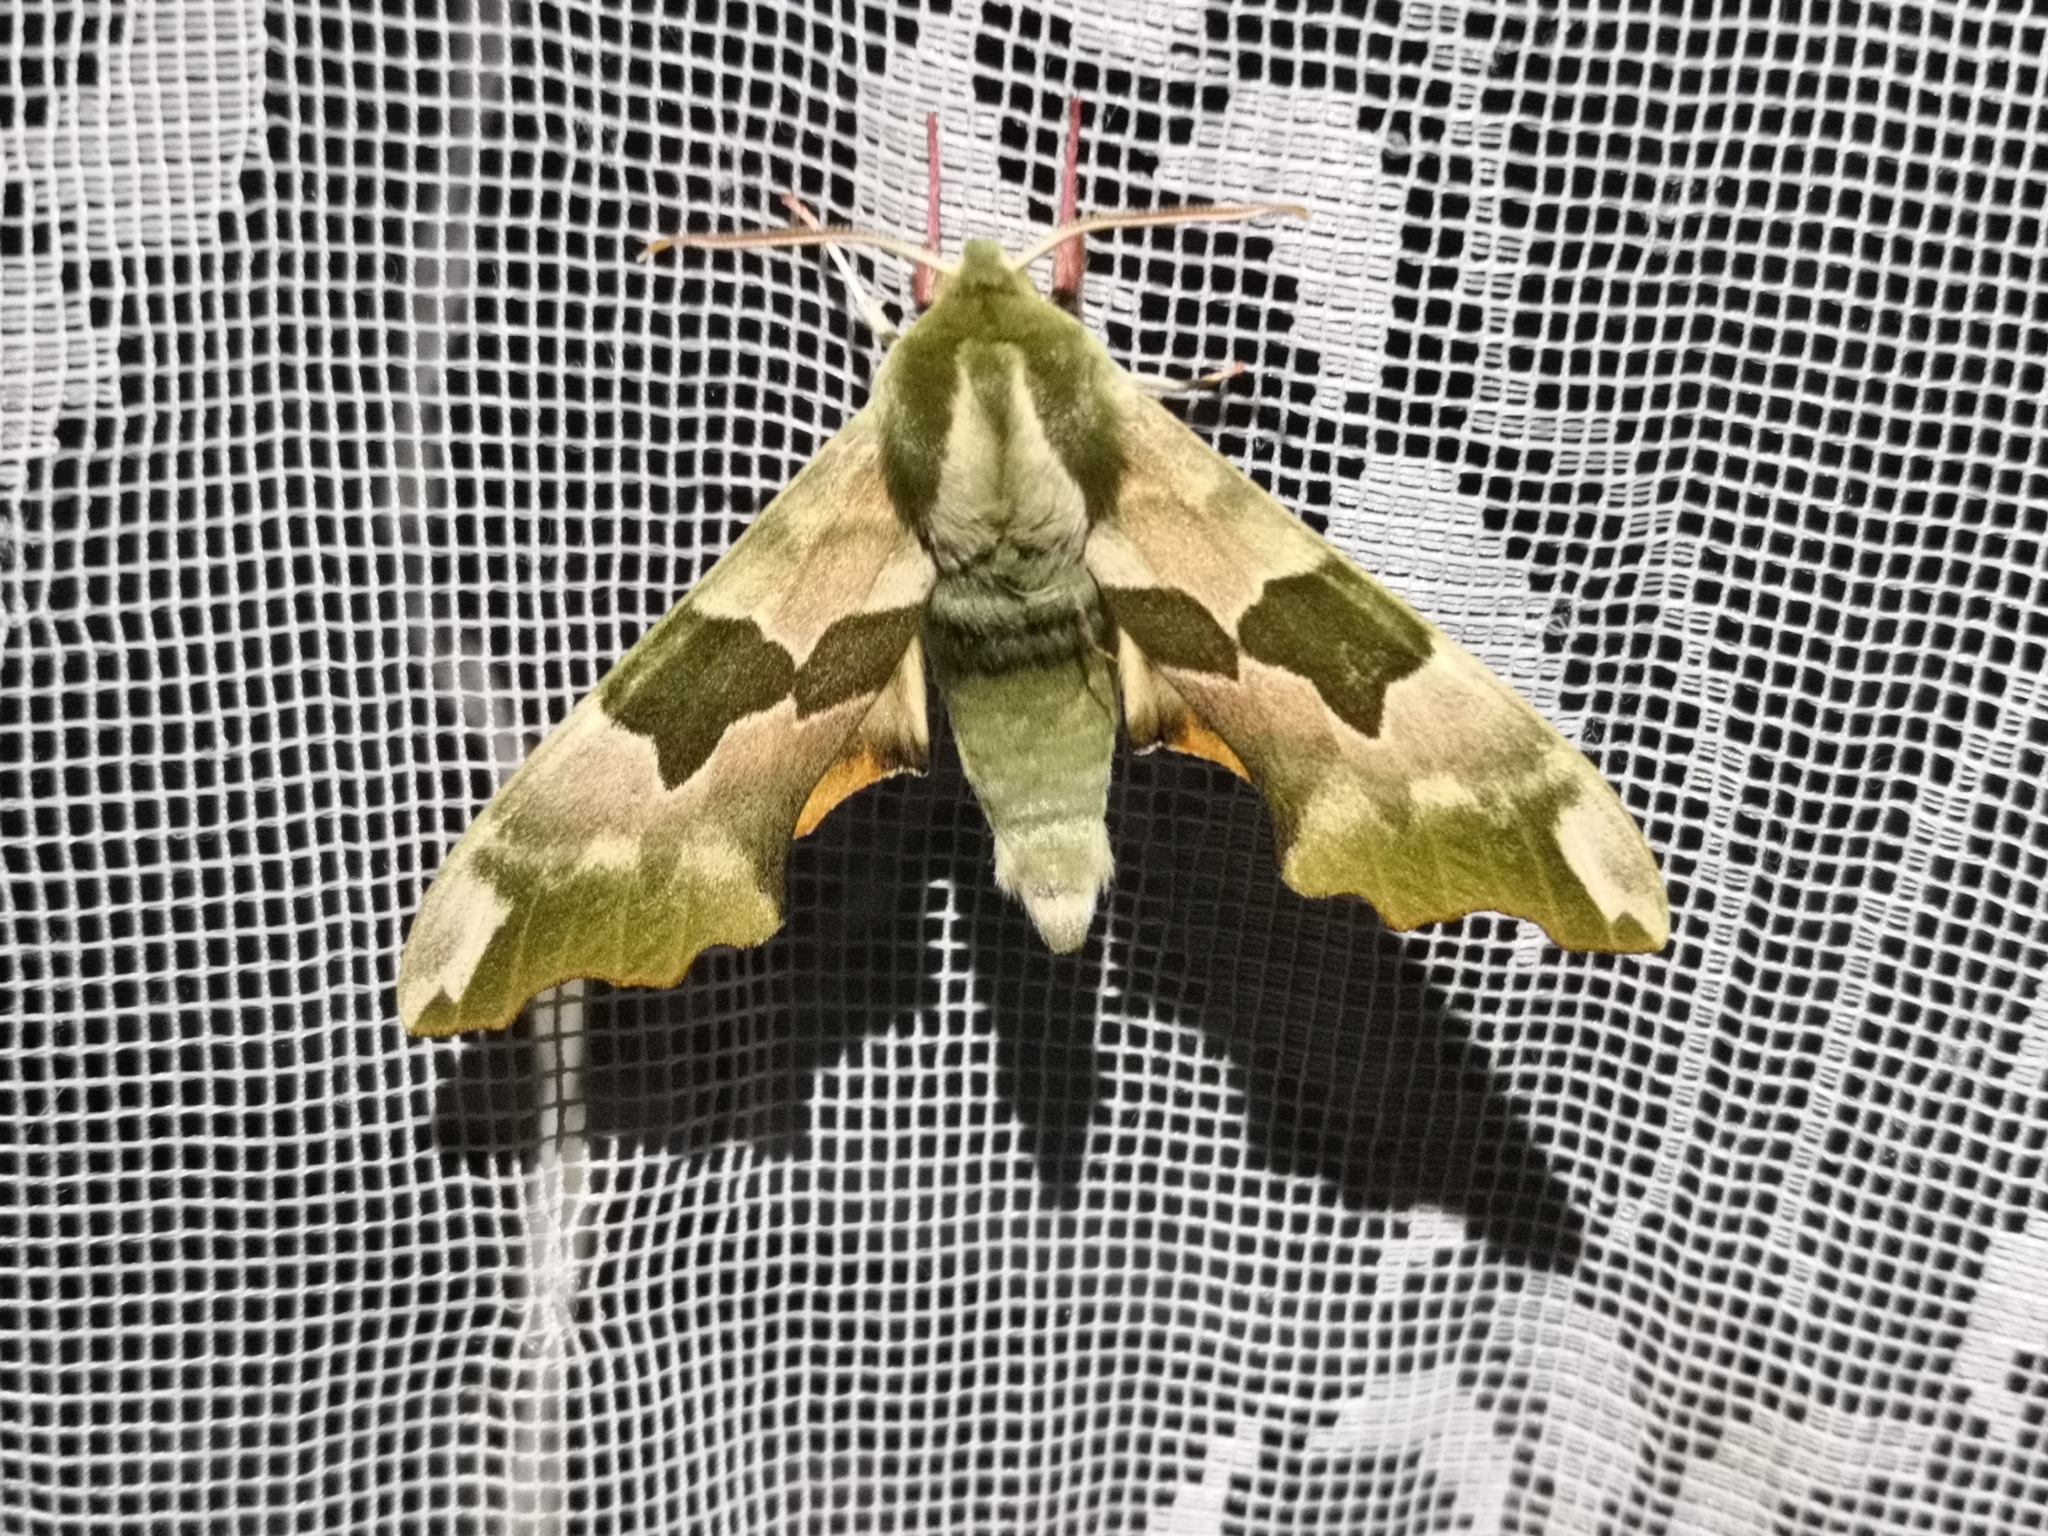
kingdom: Animalia
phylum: Arthropoda
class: Insecta
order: Lepidoptera
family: Sphingidae
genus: Mimas
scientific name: Mimas tiliae
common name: Lime hawk-moth
